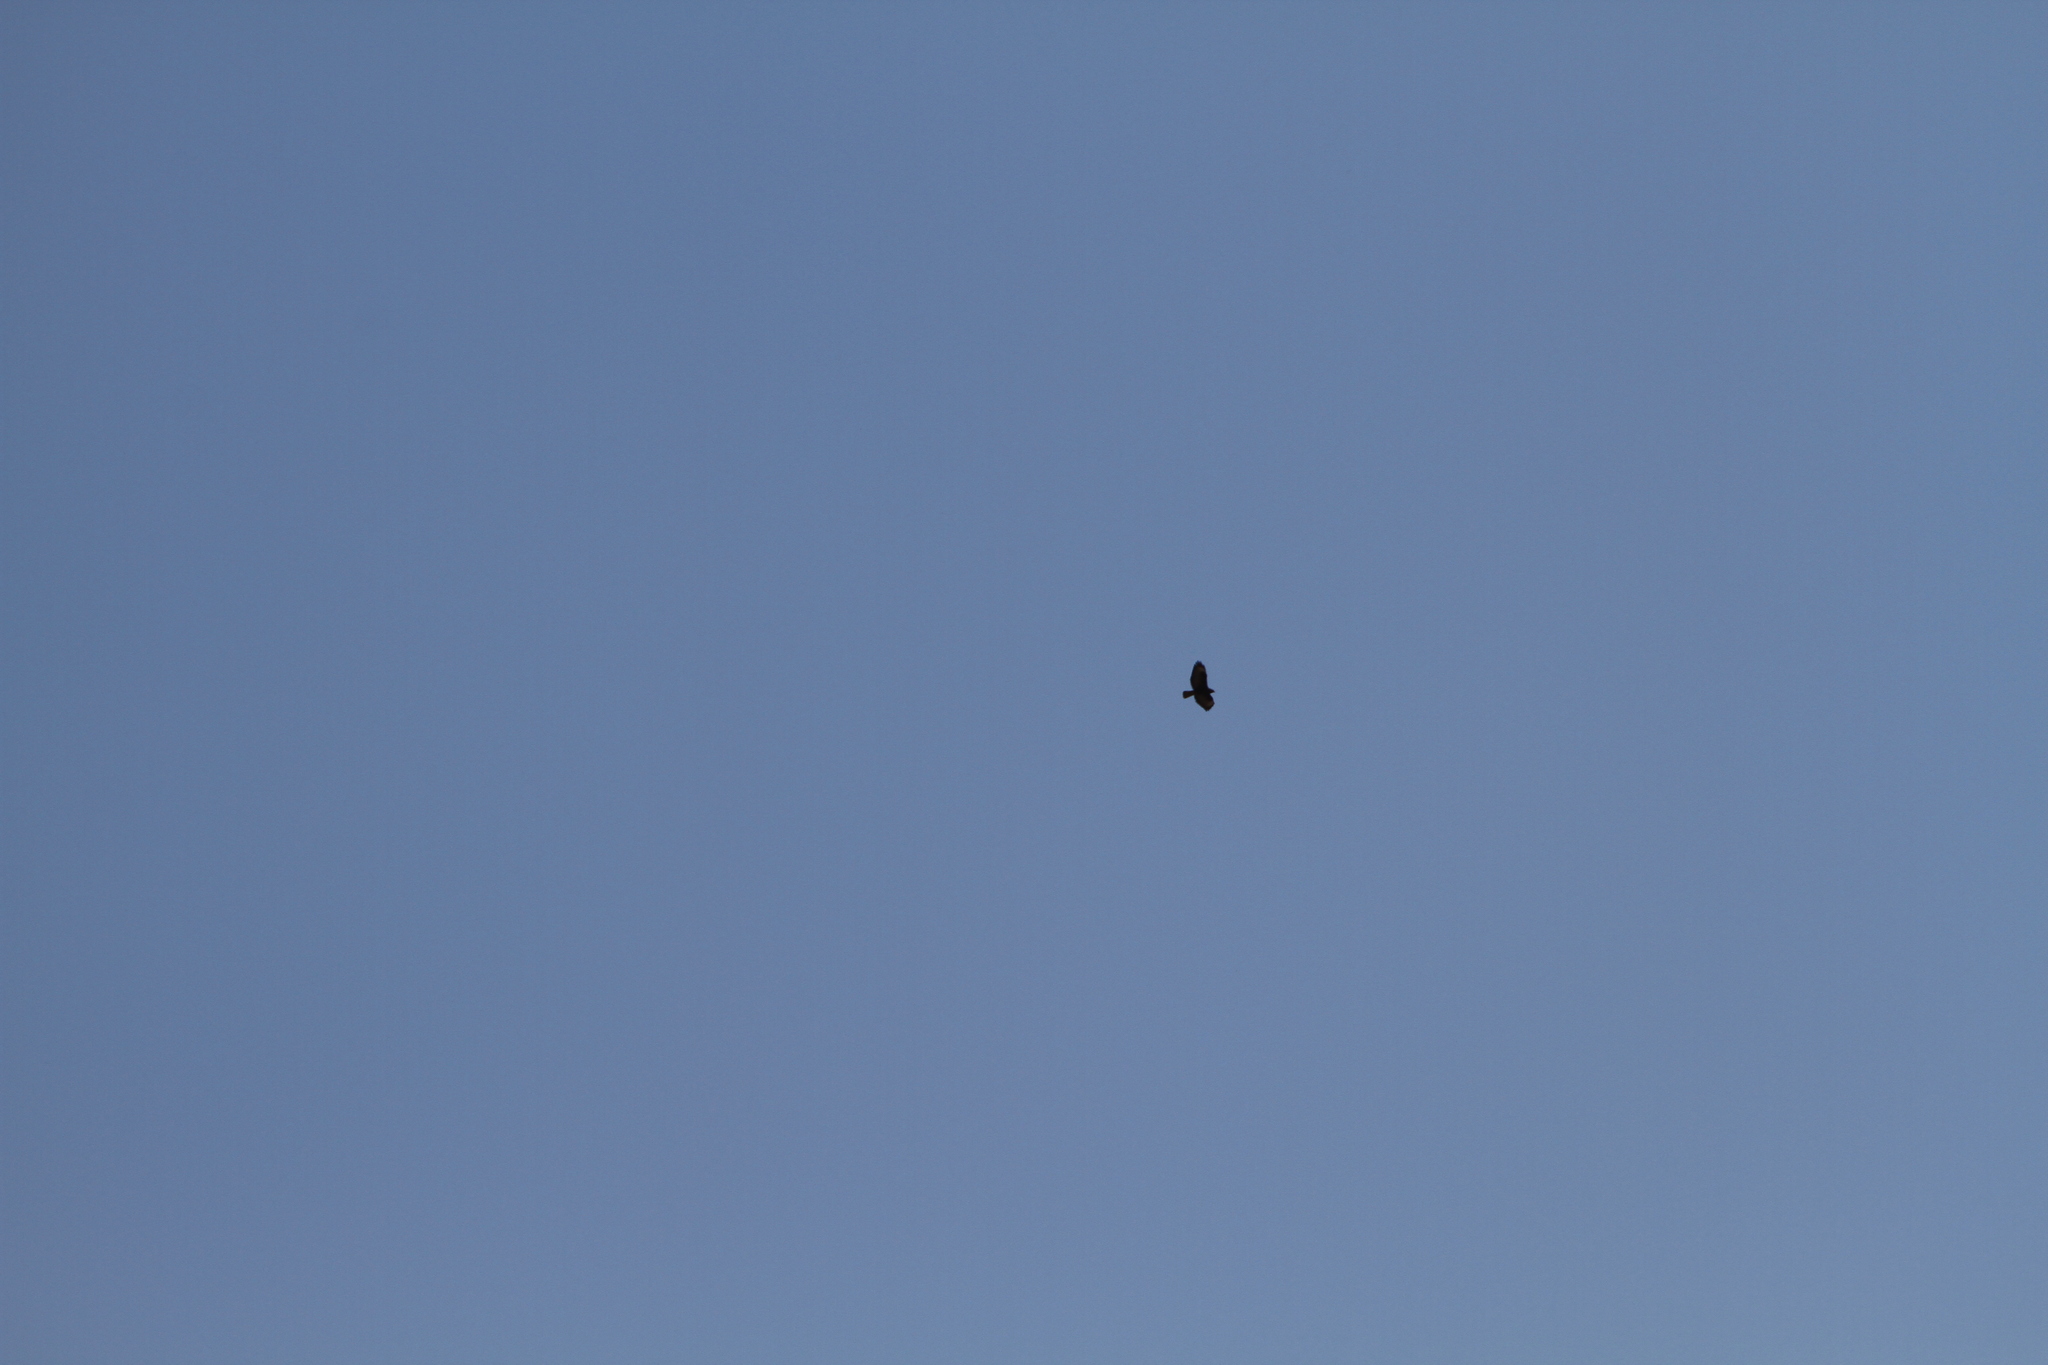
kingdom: Animalia
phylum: Chordata
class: Aves
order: Accipitriformes
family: Accipitridae
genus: Buteo
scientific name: Buteo buteo
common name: Common buzzard
